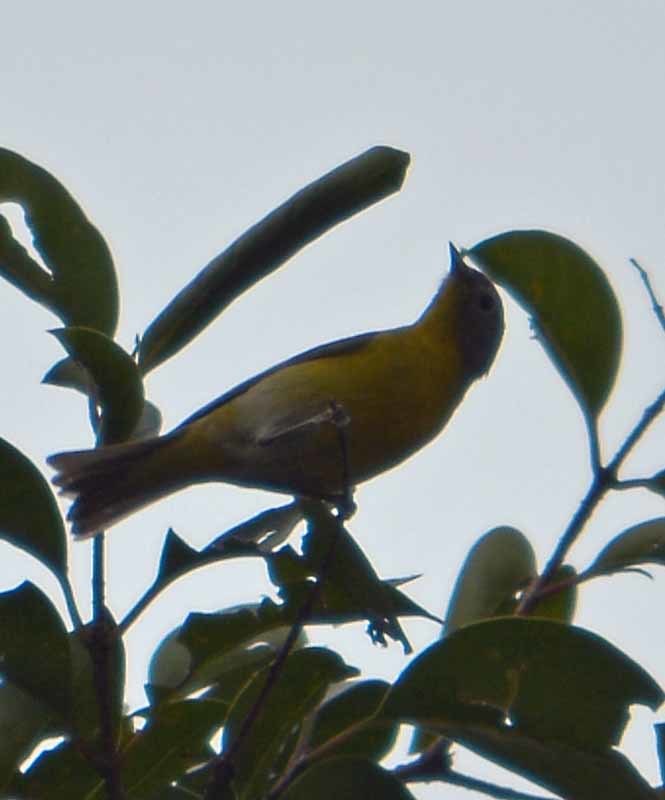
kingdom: Animalia
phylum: Chordata
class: Aves
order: Passeriformes
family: Parulidae
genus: Leiothlypis
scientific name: Leiothlypis ruficapilla
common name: Nashville warbler
